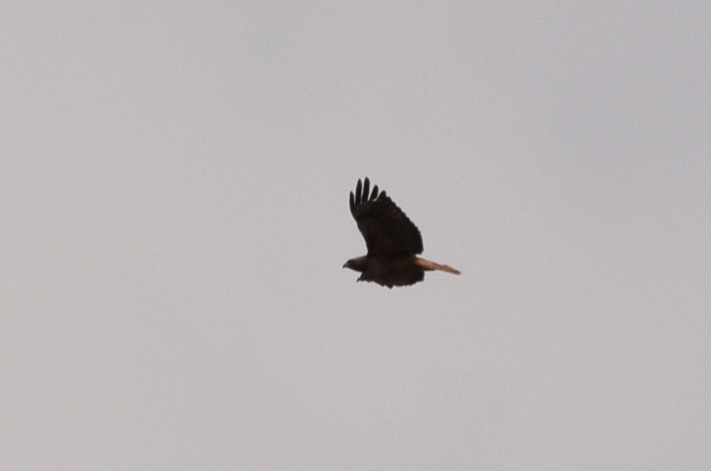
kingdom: Animalia
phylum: Chordata
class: Aves
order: Accipitriformes
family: Accipitridae
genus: Buteo
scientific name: Buteo jamaicensis
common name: Red-tailed hawk
